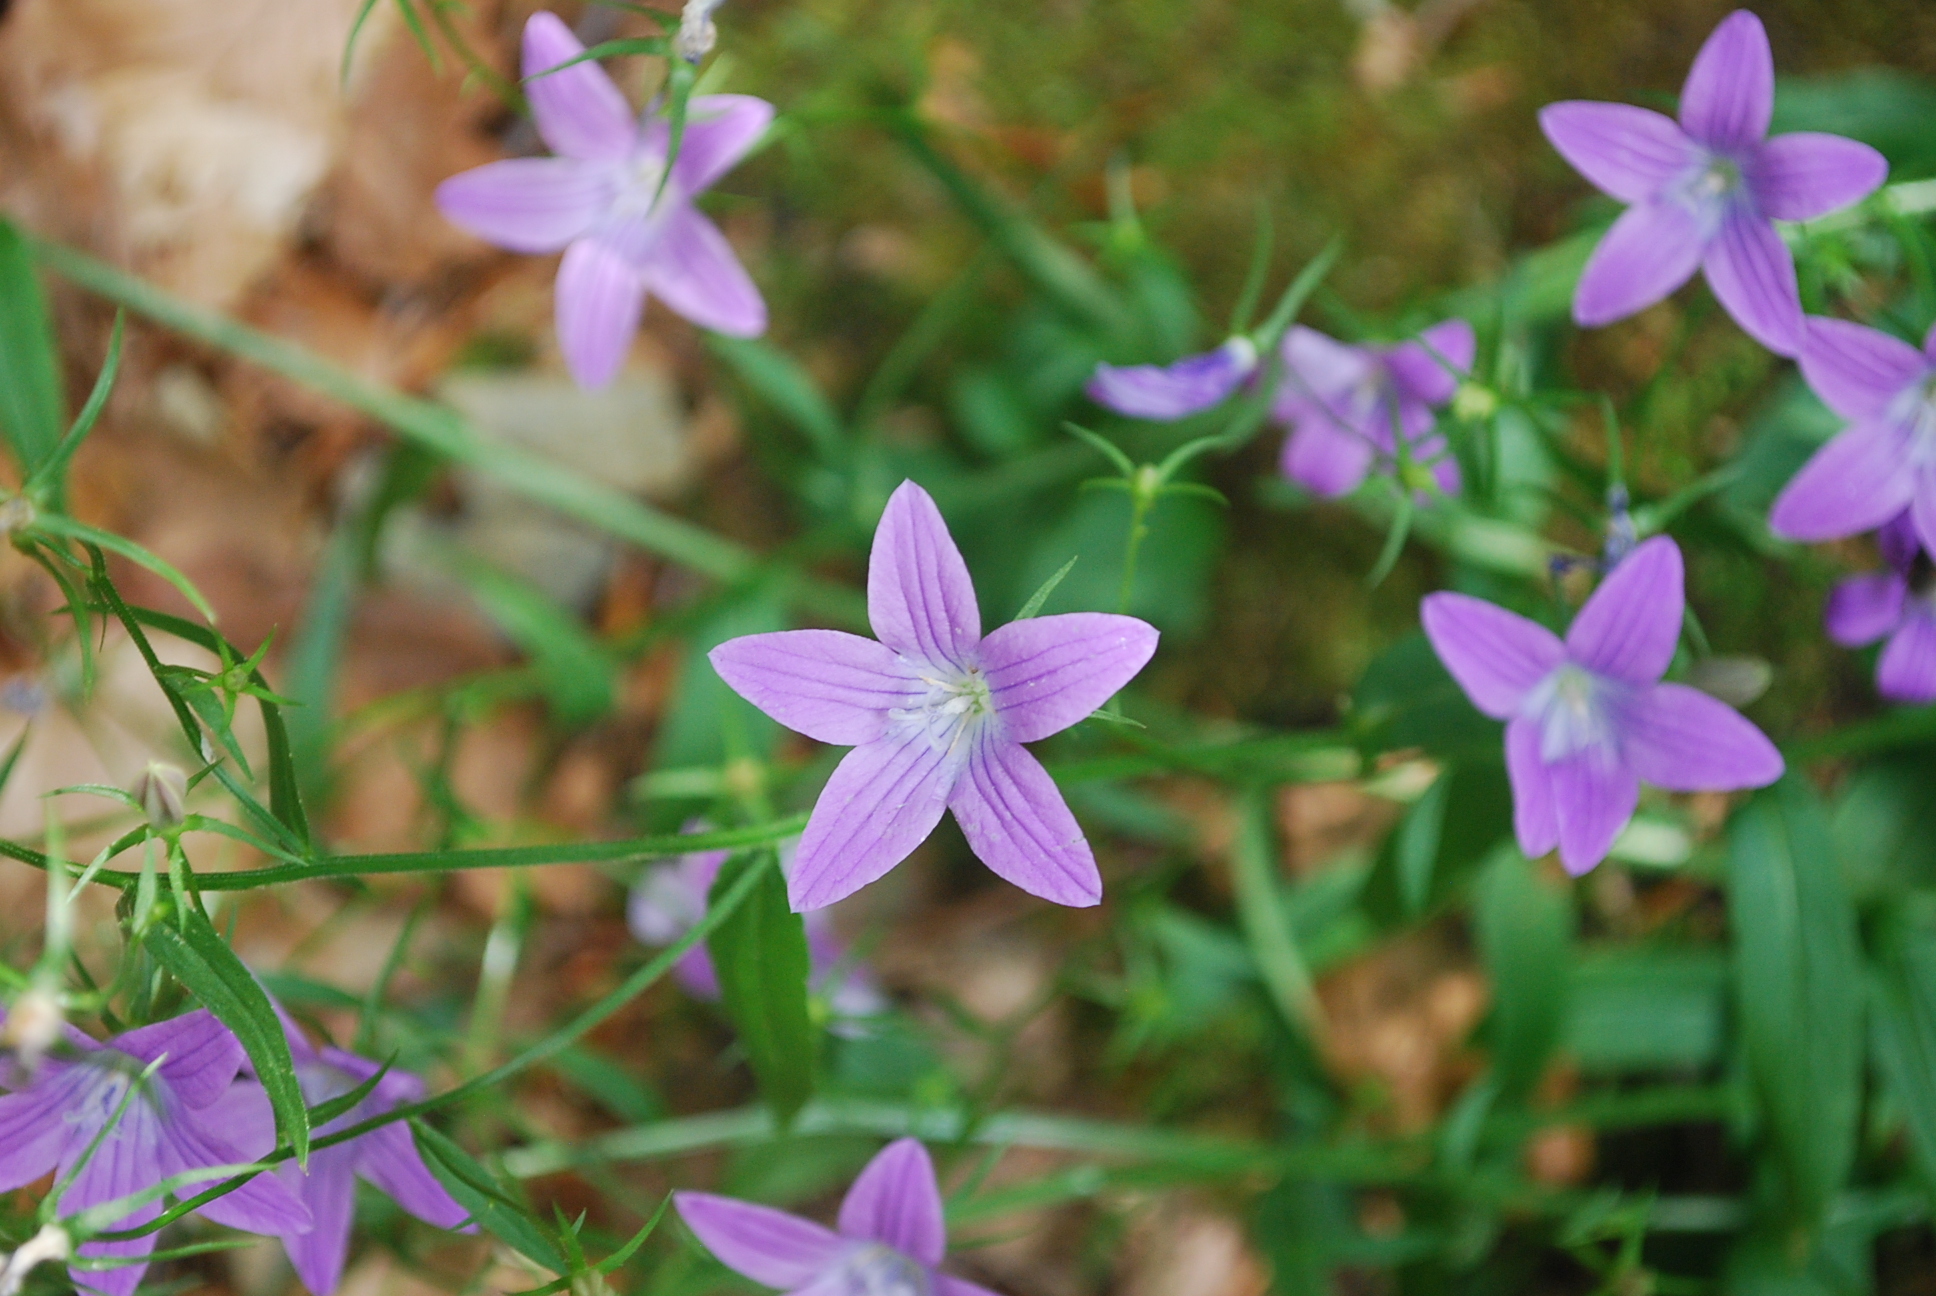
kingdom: Plantae
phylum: Tracheophyta
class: Magnoliopsida
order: Asterales
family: Campanulaceae
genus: Campanula
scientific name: Campanula patula
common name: Spreading bellflower
